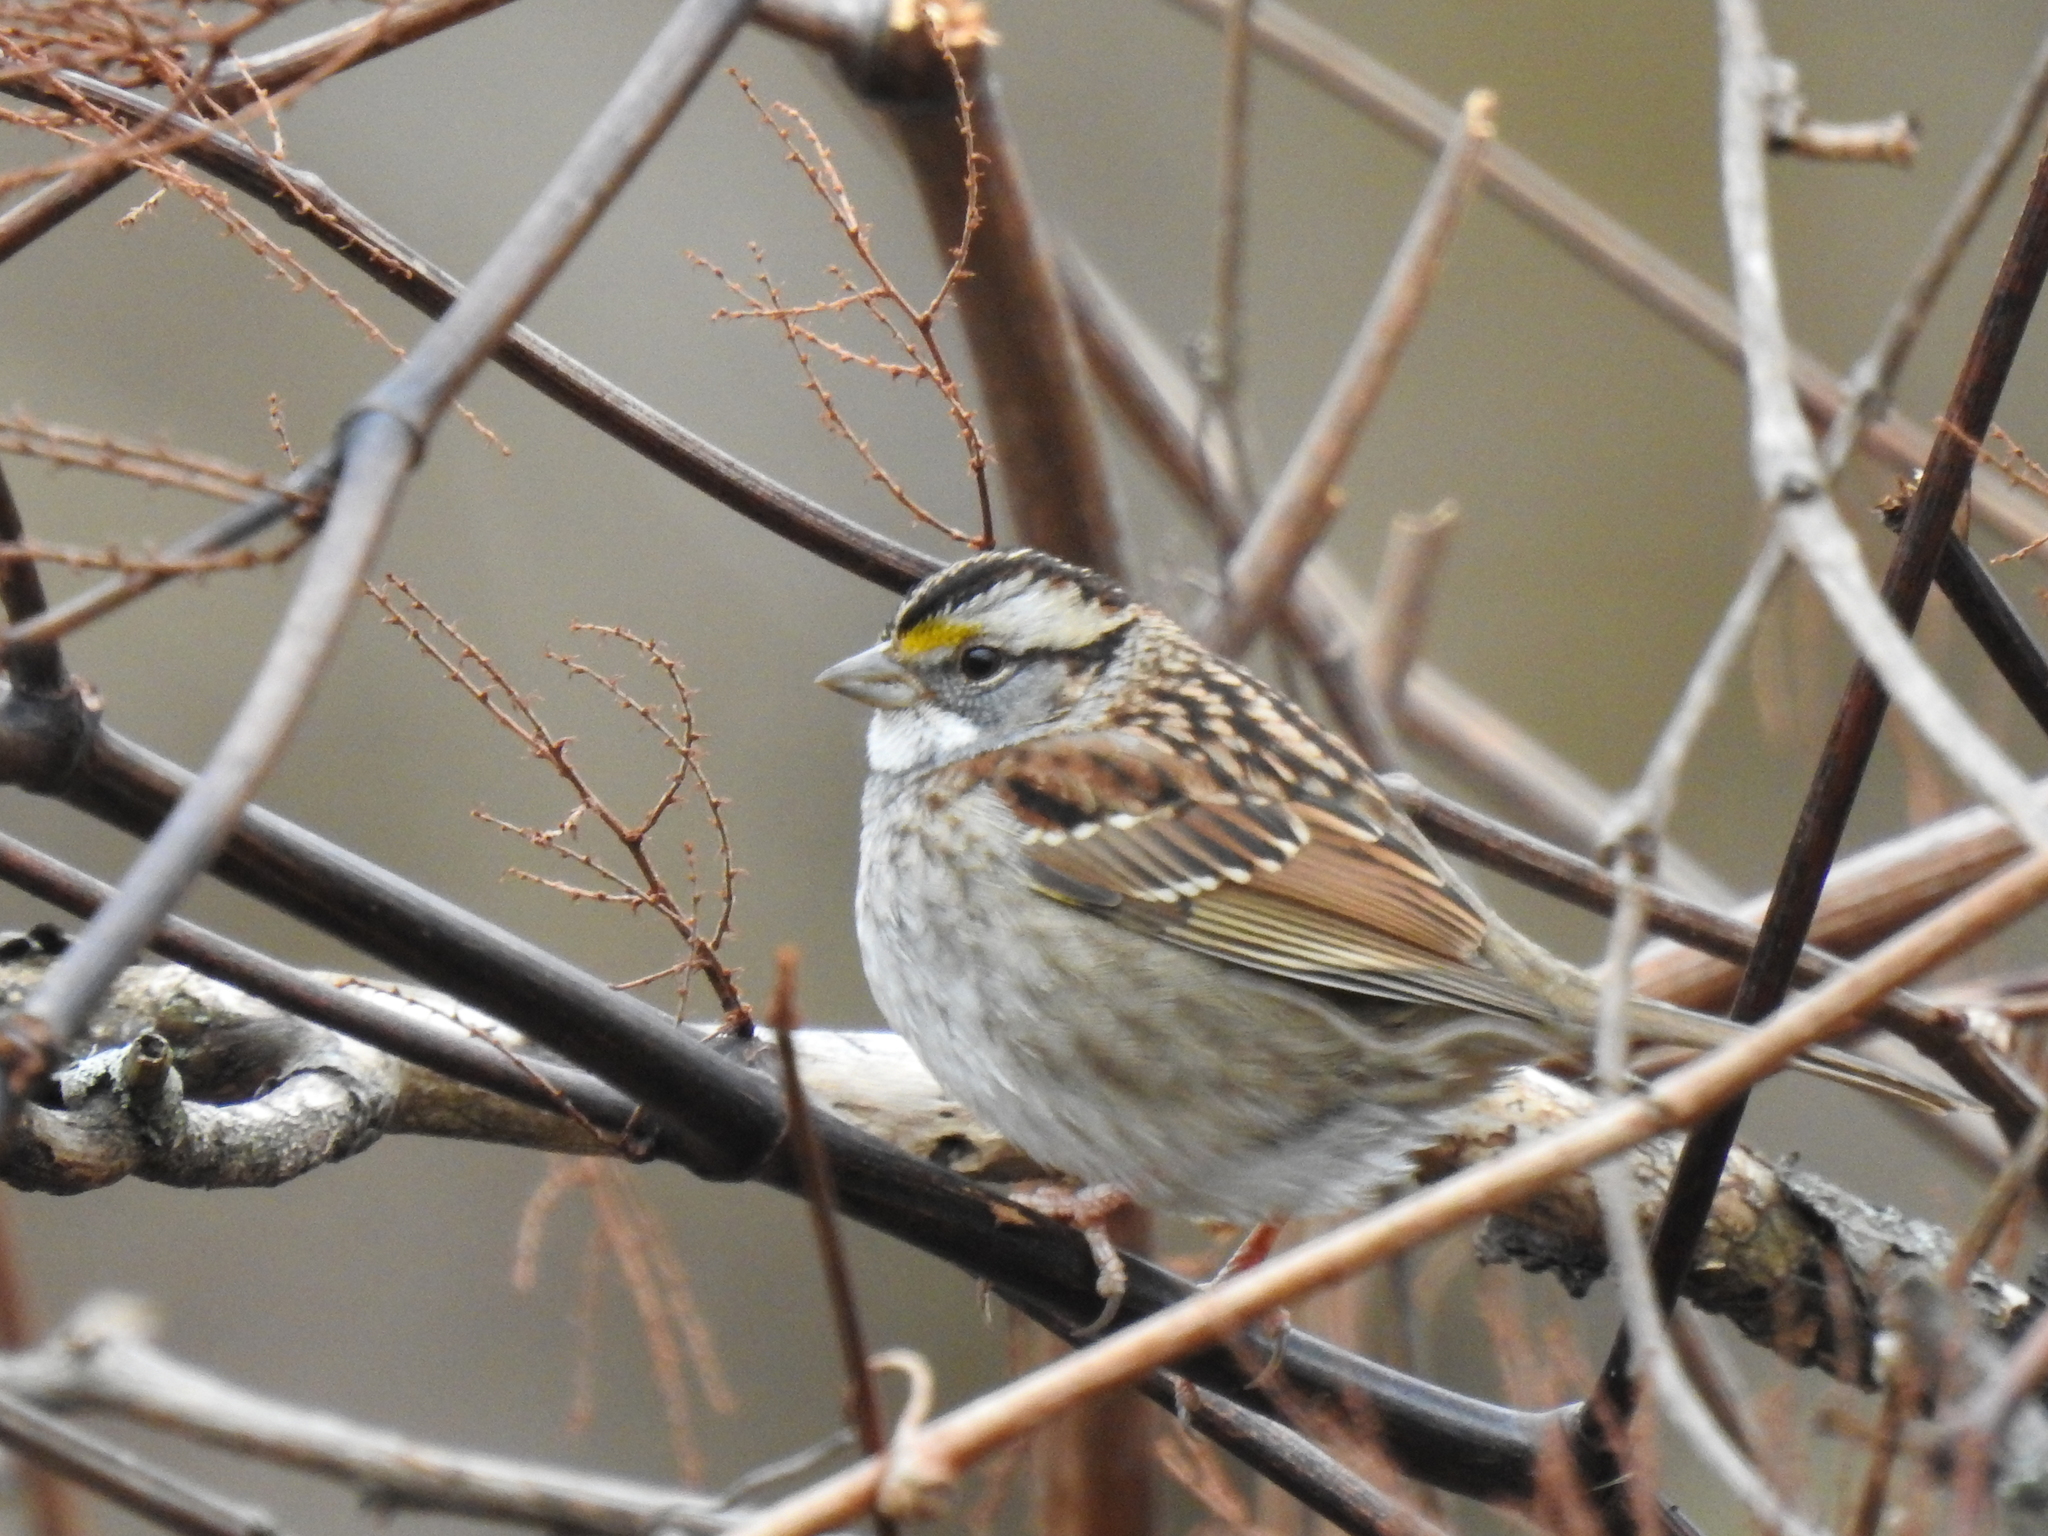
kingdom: Animalia
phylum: Chordata
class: Aves
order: Passeriformes
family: Passerellidae
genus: Zonotrichia
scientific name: Zonotrichia albicollis
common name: White-throated sparrow
